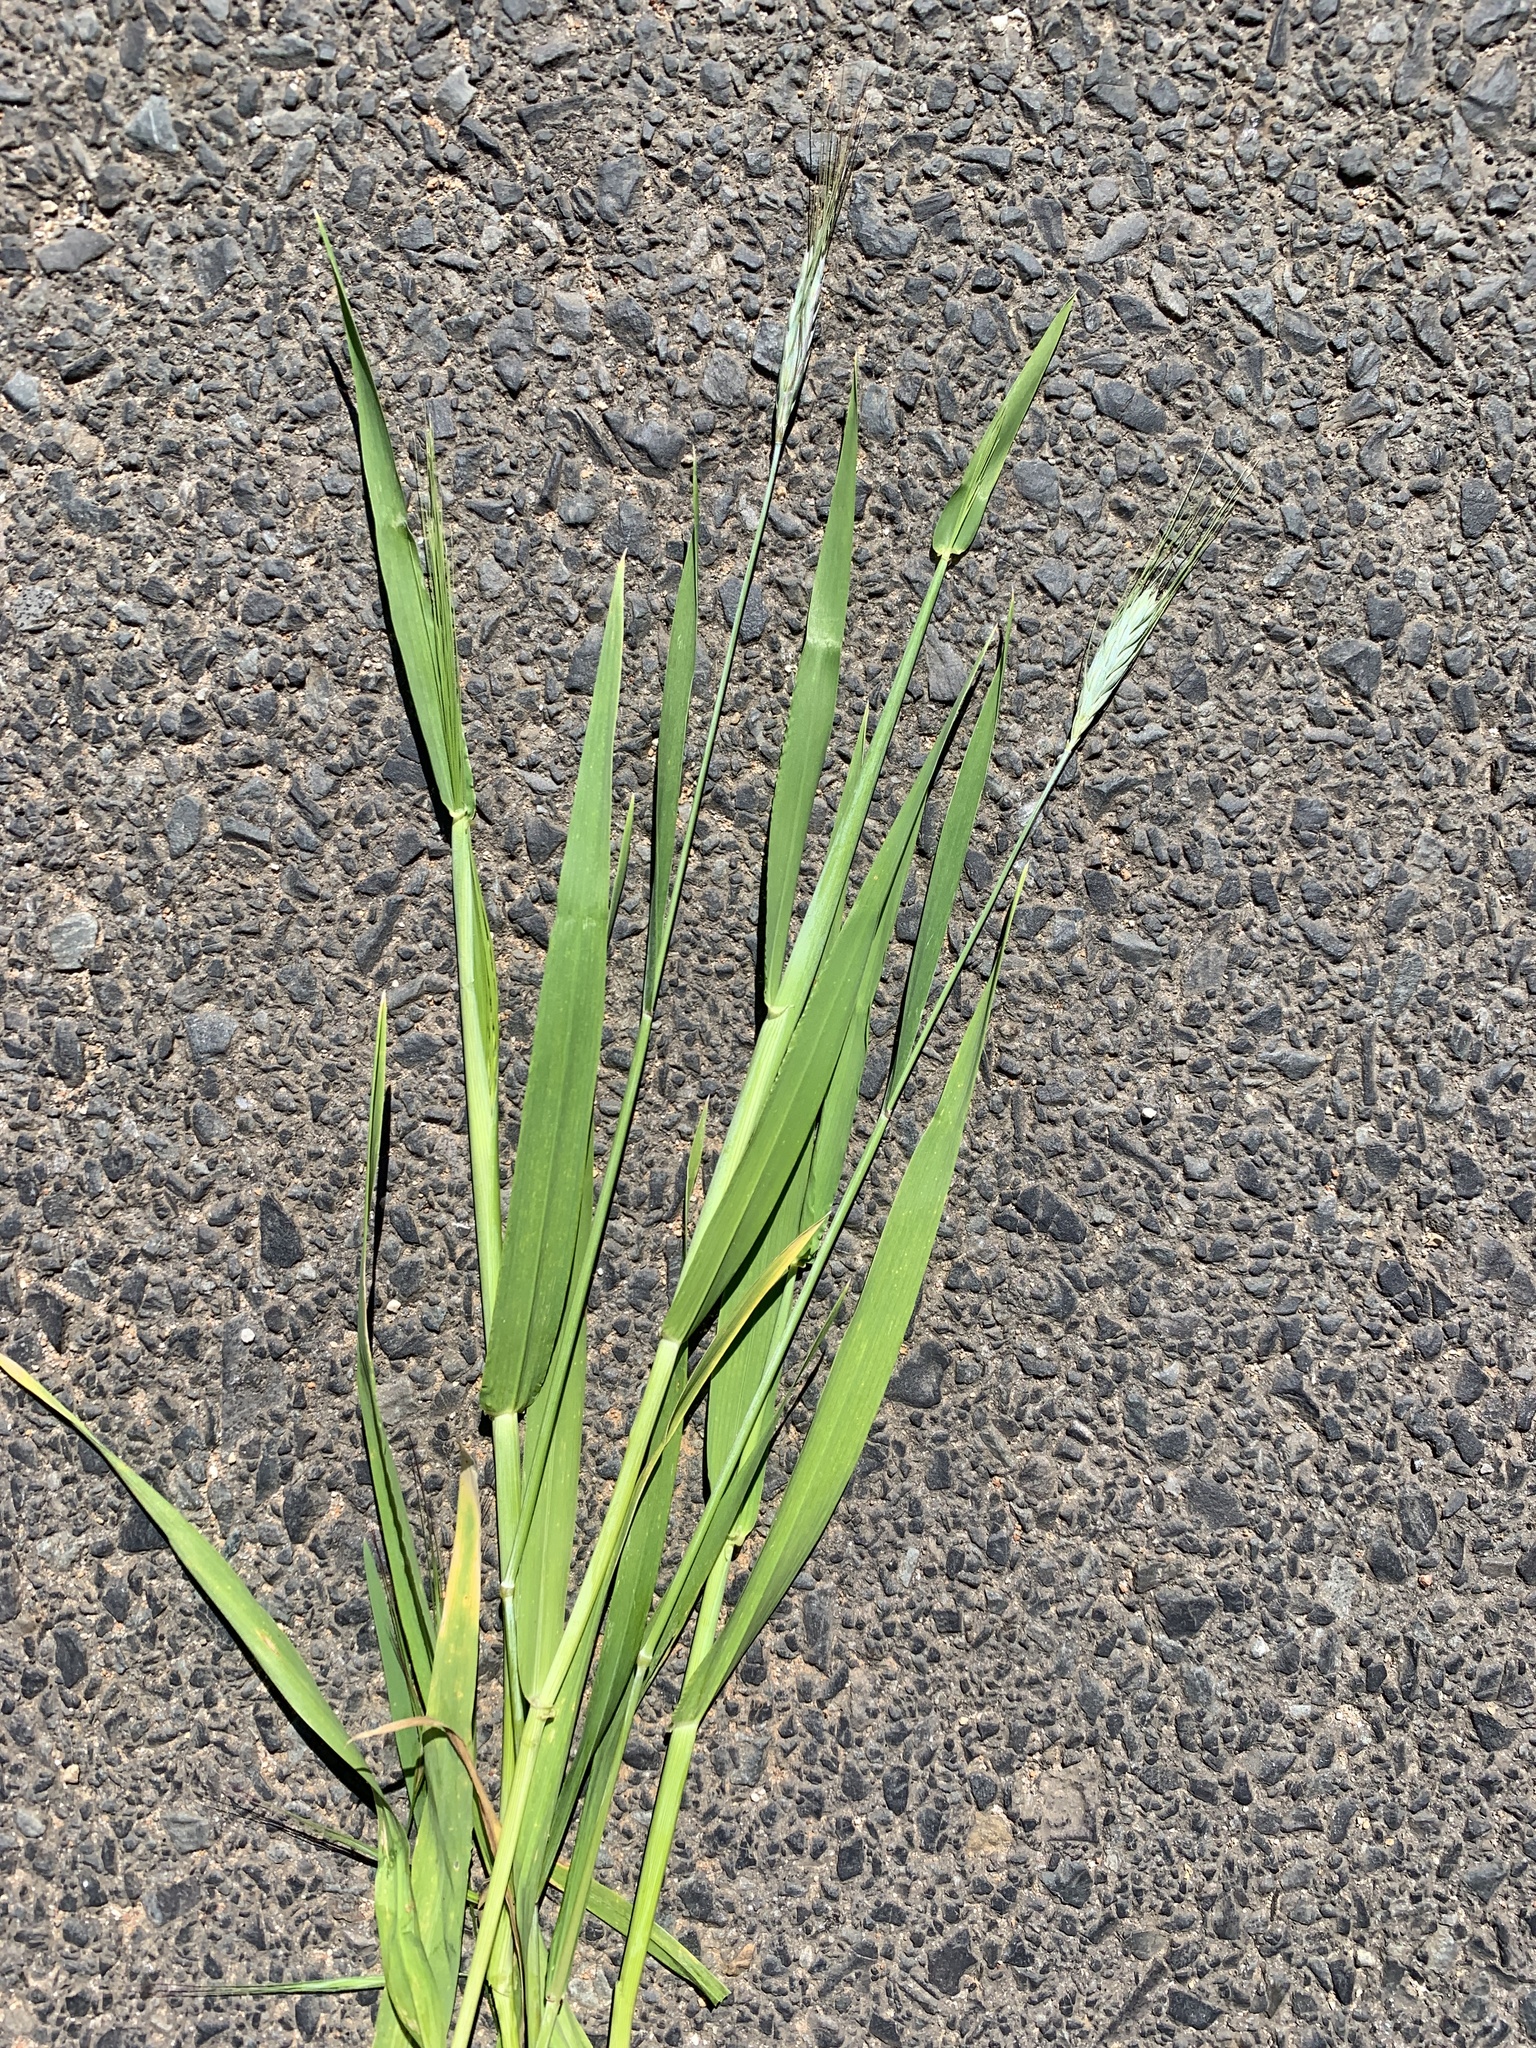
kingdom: Plantae
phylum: Tracheophyta
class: Liliopsida
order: Poales
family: Poaceae
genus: Triticum
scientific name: Triticum aestivum
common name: Common wheat
